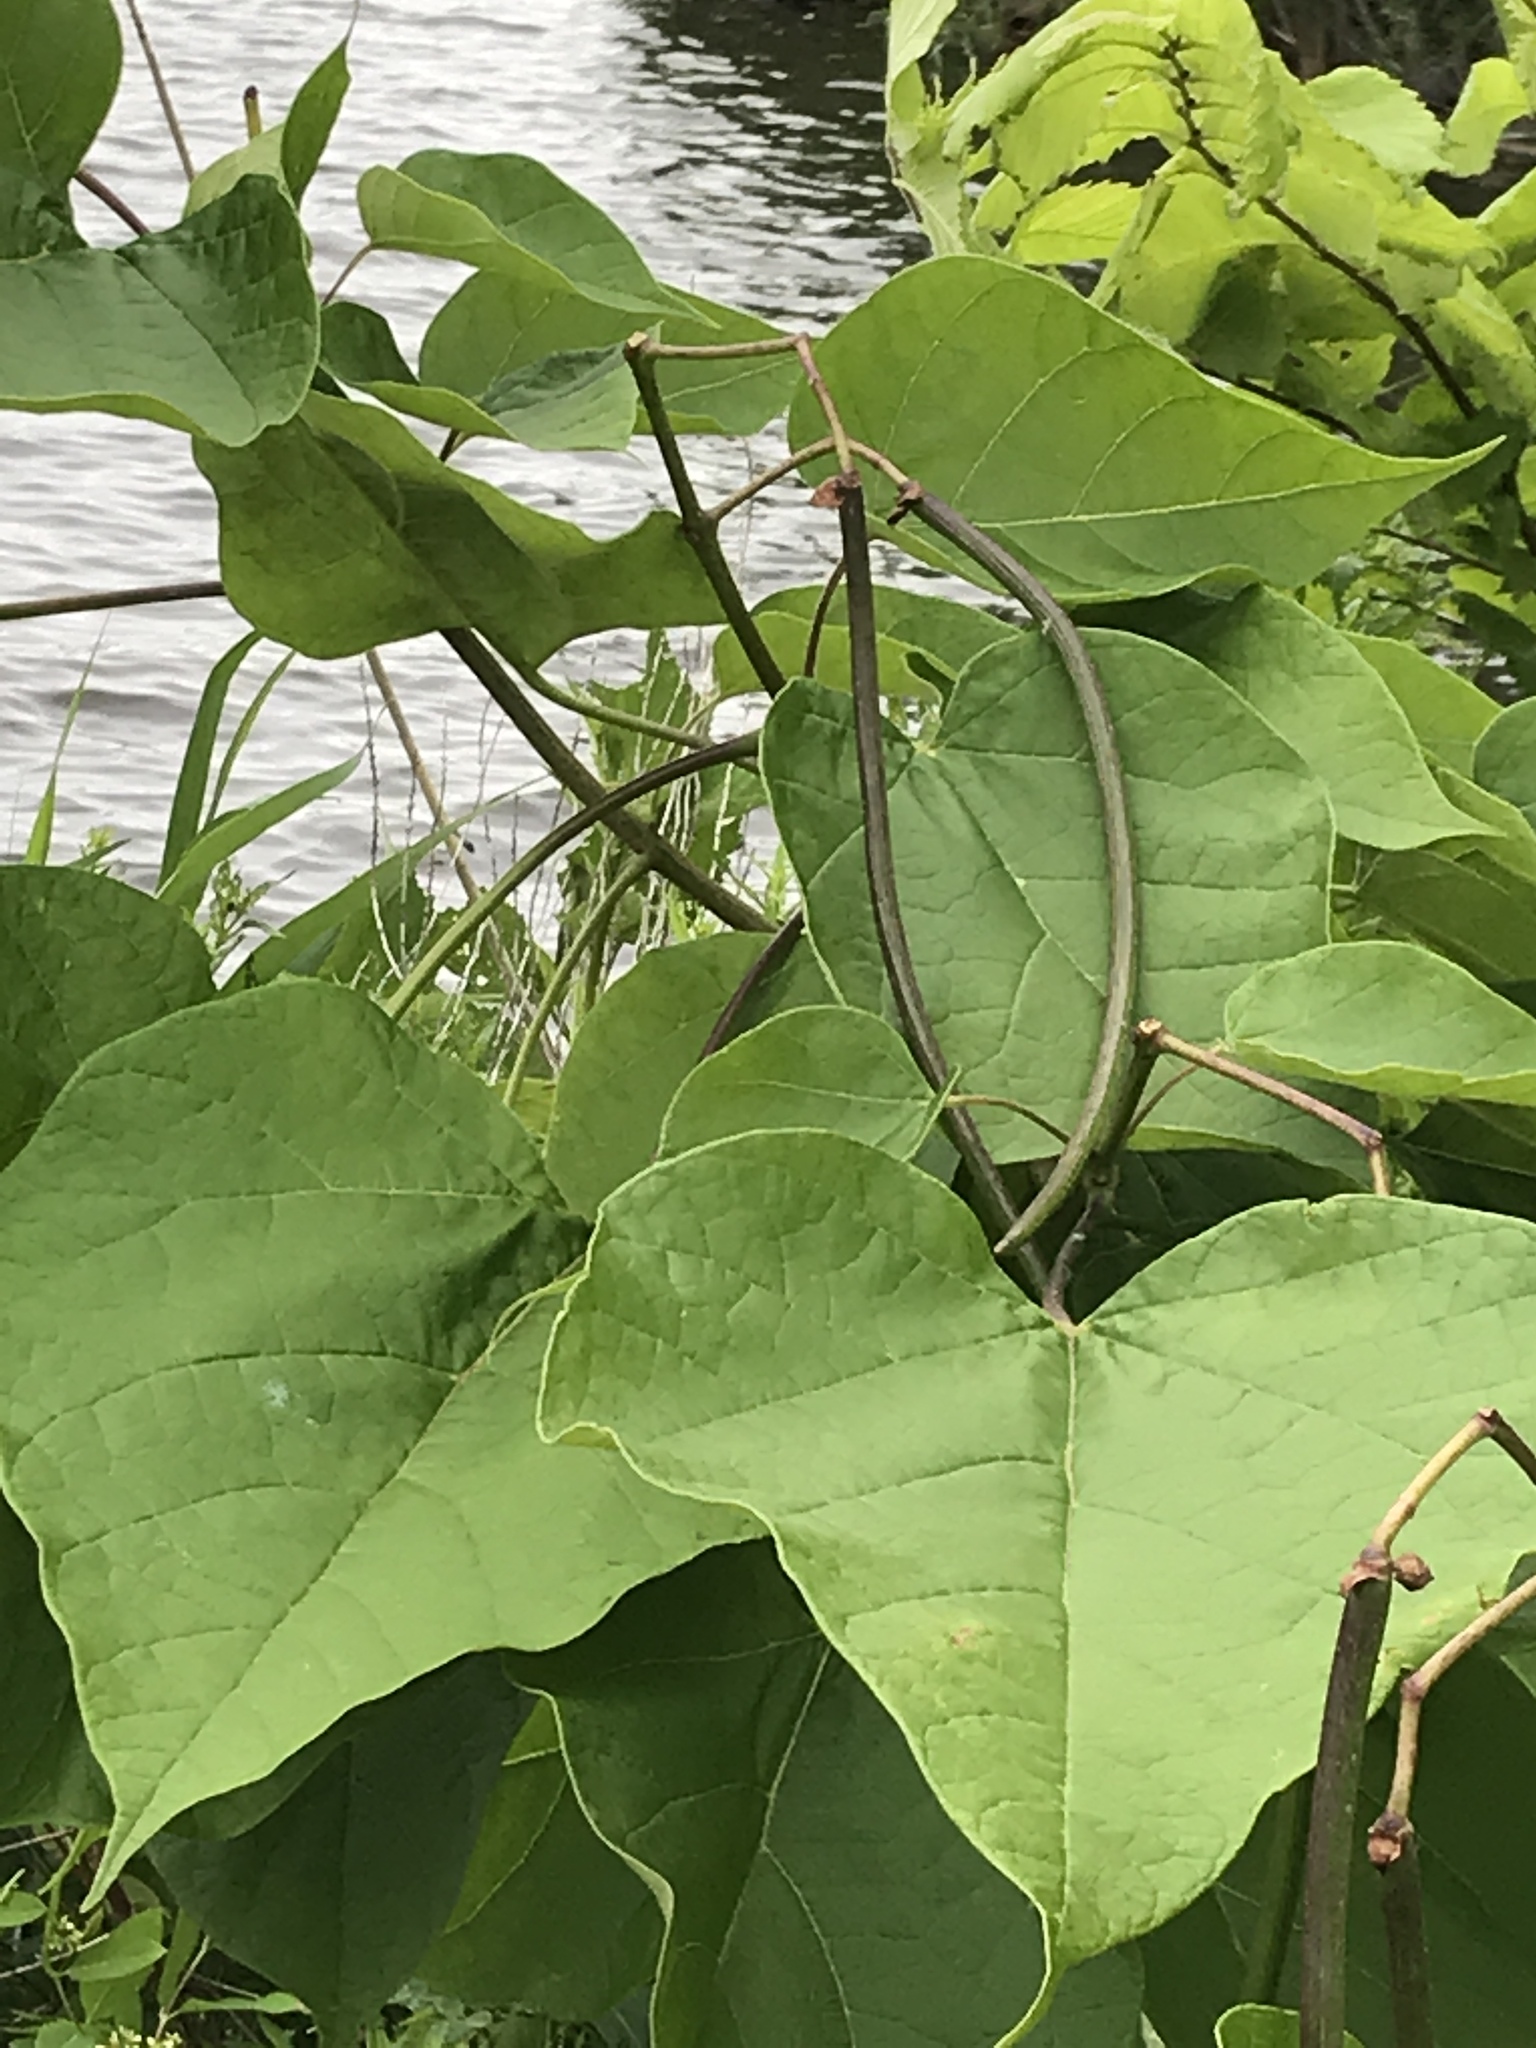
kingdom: Plantae
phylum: Tracheophyta
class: Magnoliopsida
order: Lamiales
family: Bignoniaceae
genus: Catalpa
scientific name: Catalpa speciosa
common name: Northern catalpa
